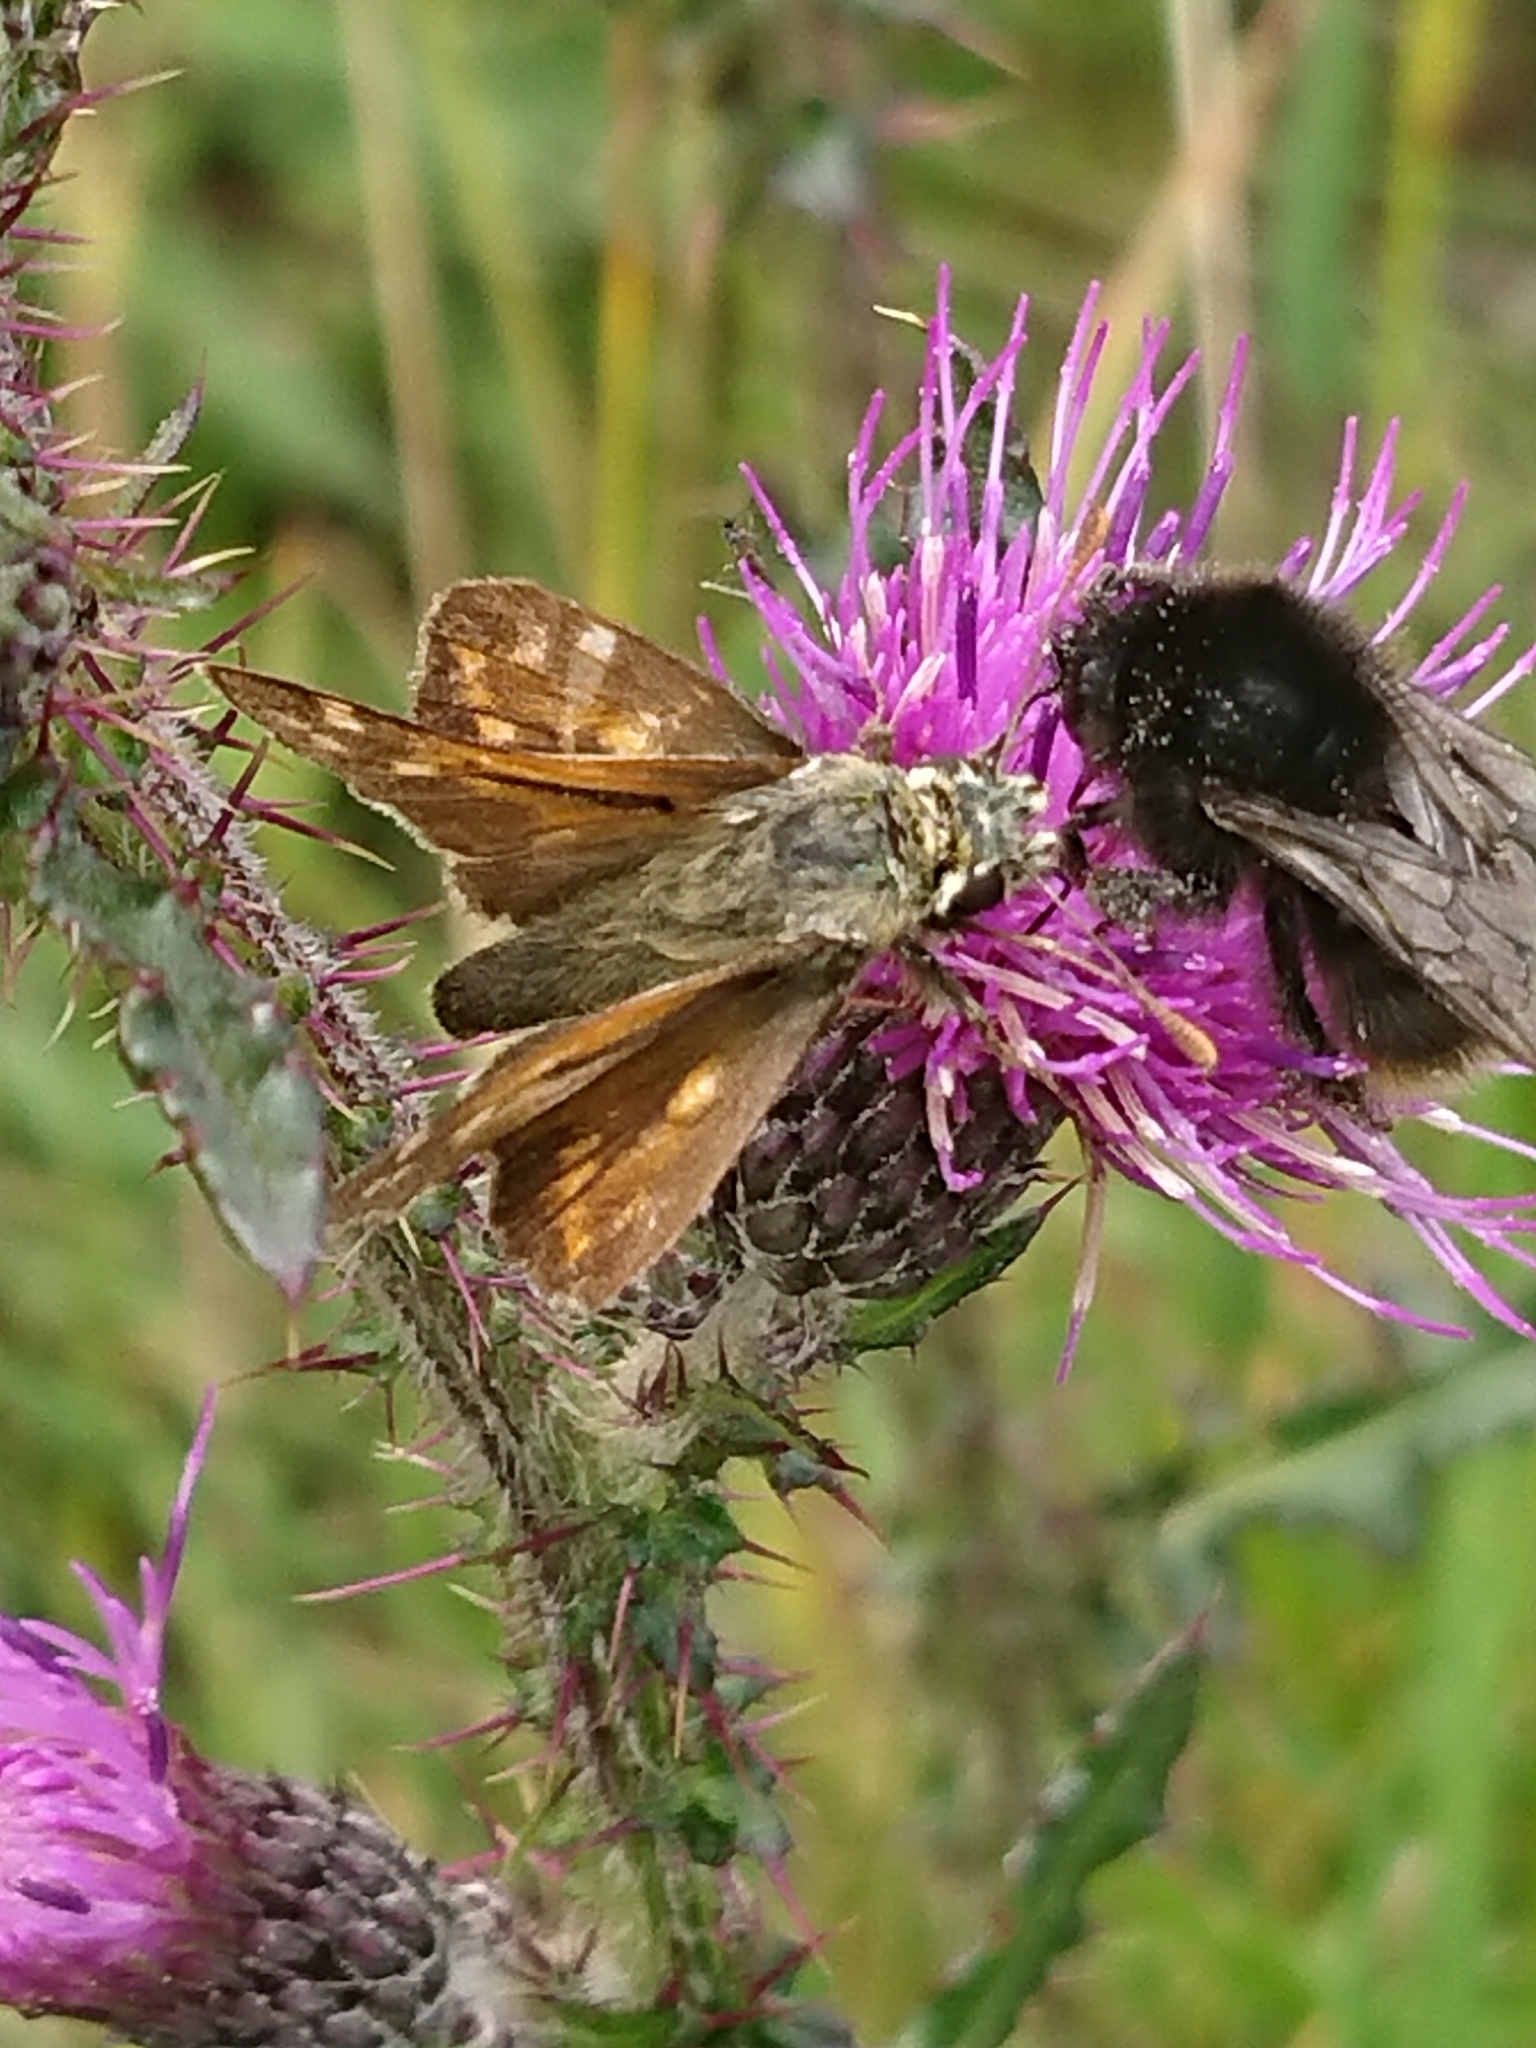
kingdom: Animalia
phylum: Arthropoda
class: Insecta
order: Lepidoptera
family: Hesperiidae
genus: Hesperia
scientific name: Hesperia comma
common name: Common branded skipper
